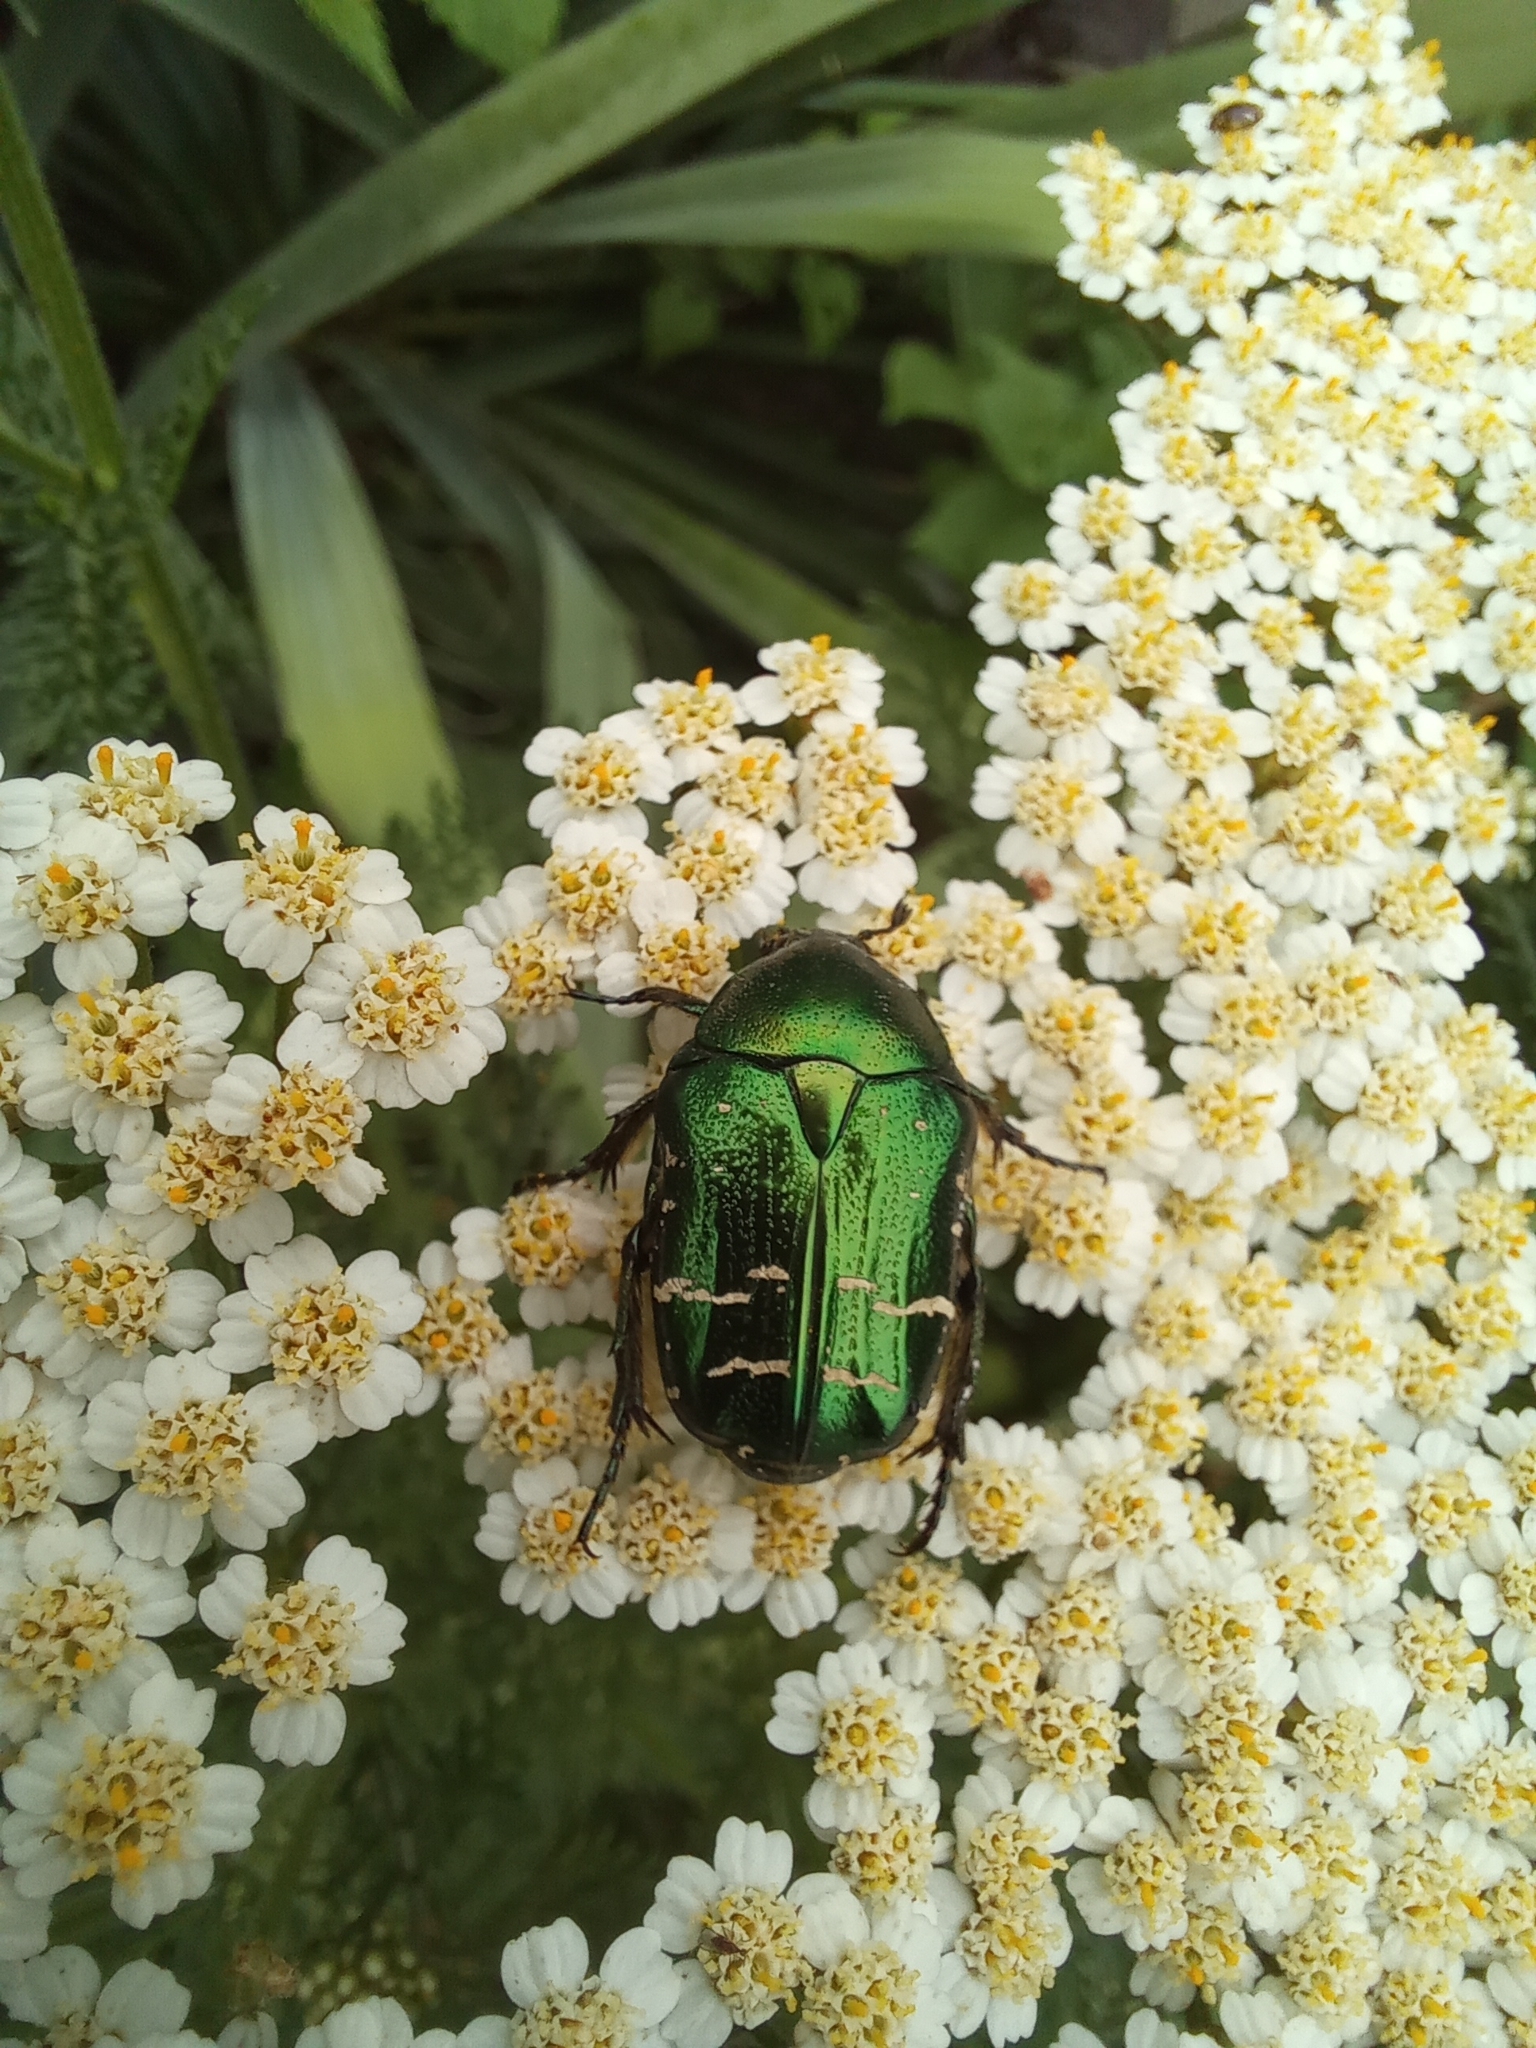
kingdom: Animalia
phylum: Arthropoda
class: Insecta
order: Coleoptera
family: Scarabaeidae
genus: Cetonia
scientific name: Cetonia aurata
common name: Rose chafer
